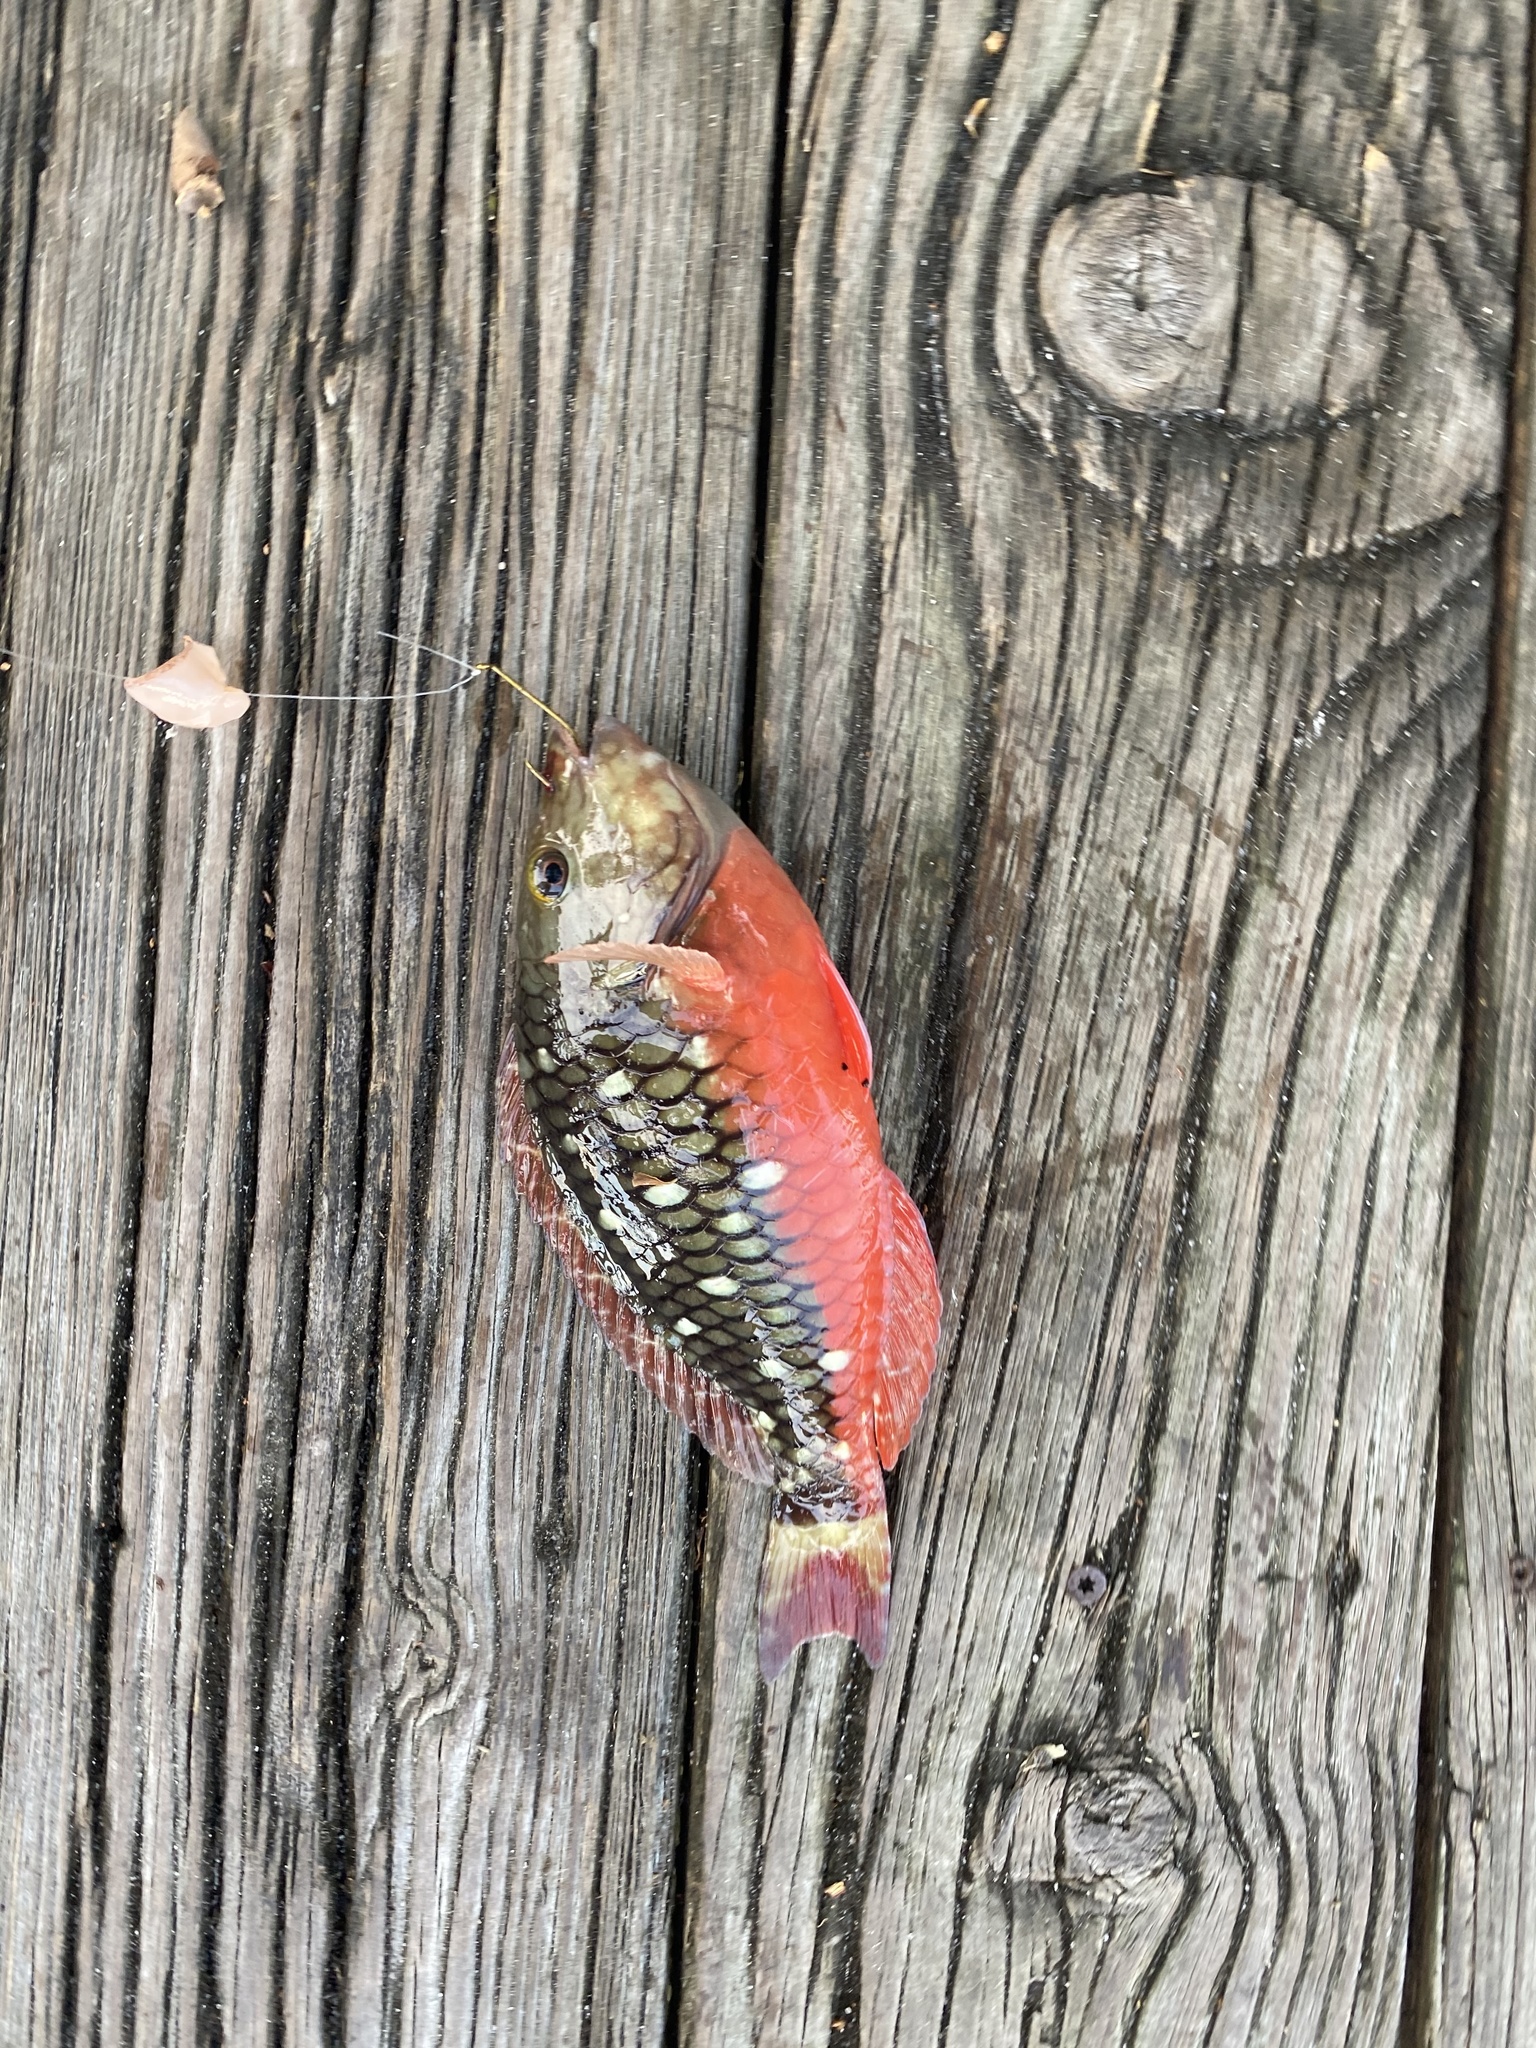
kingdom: Animalia
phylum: Chordata
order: Perciformes
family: Scaridae
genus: Sparisoma
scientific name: Sparisoma viride
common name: Stoplight parrotfish
